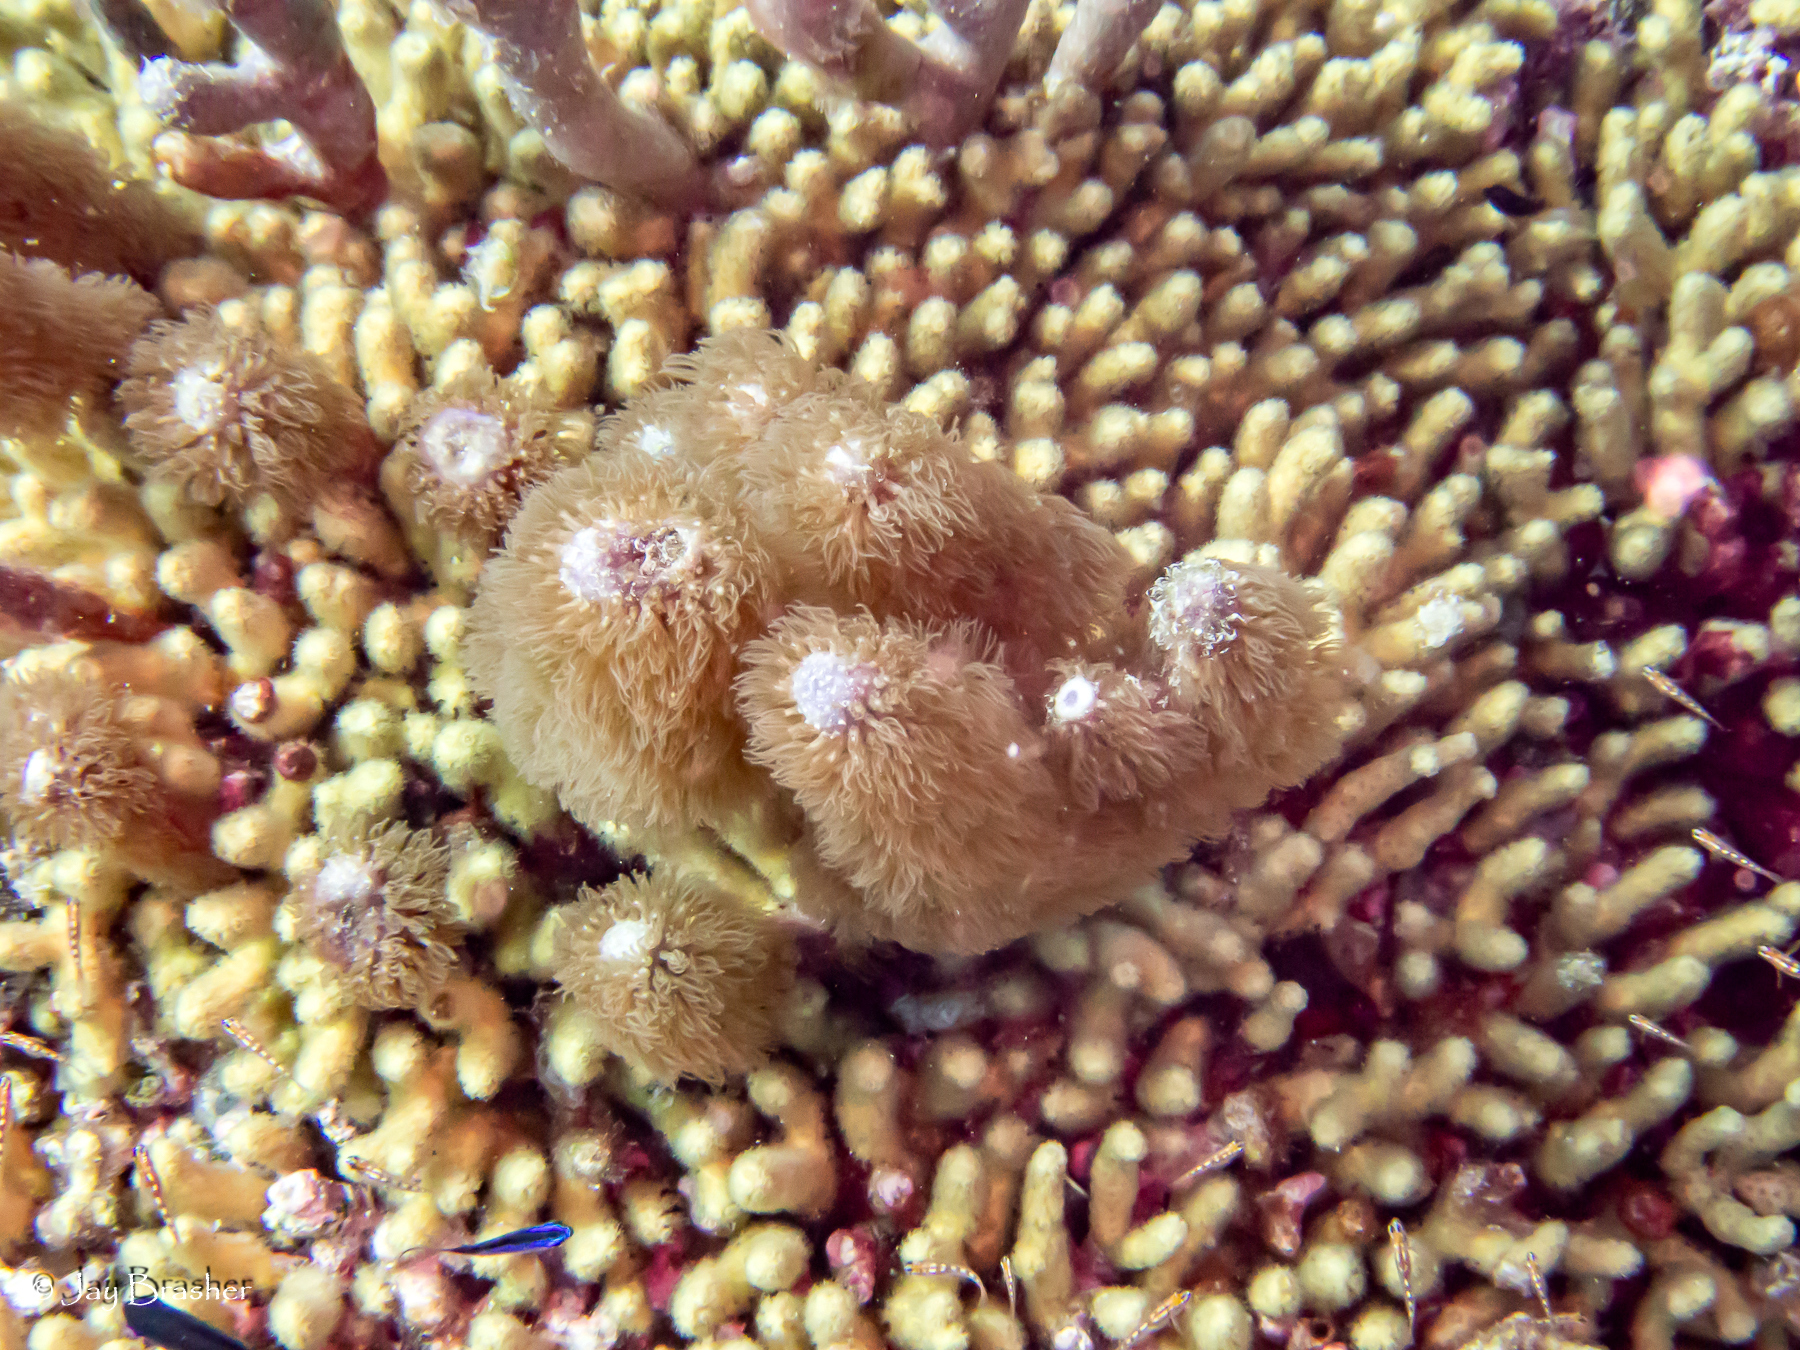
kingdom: Animalia
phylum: Cnidaria
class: Anthozoa
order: Scleralcyonacea
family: Briareidae
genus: Briareum
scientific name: Briareum asbestinum
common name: Corky sea finger
